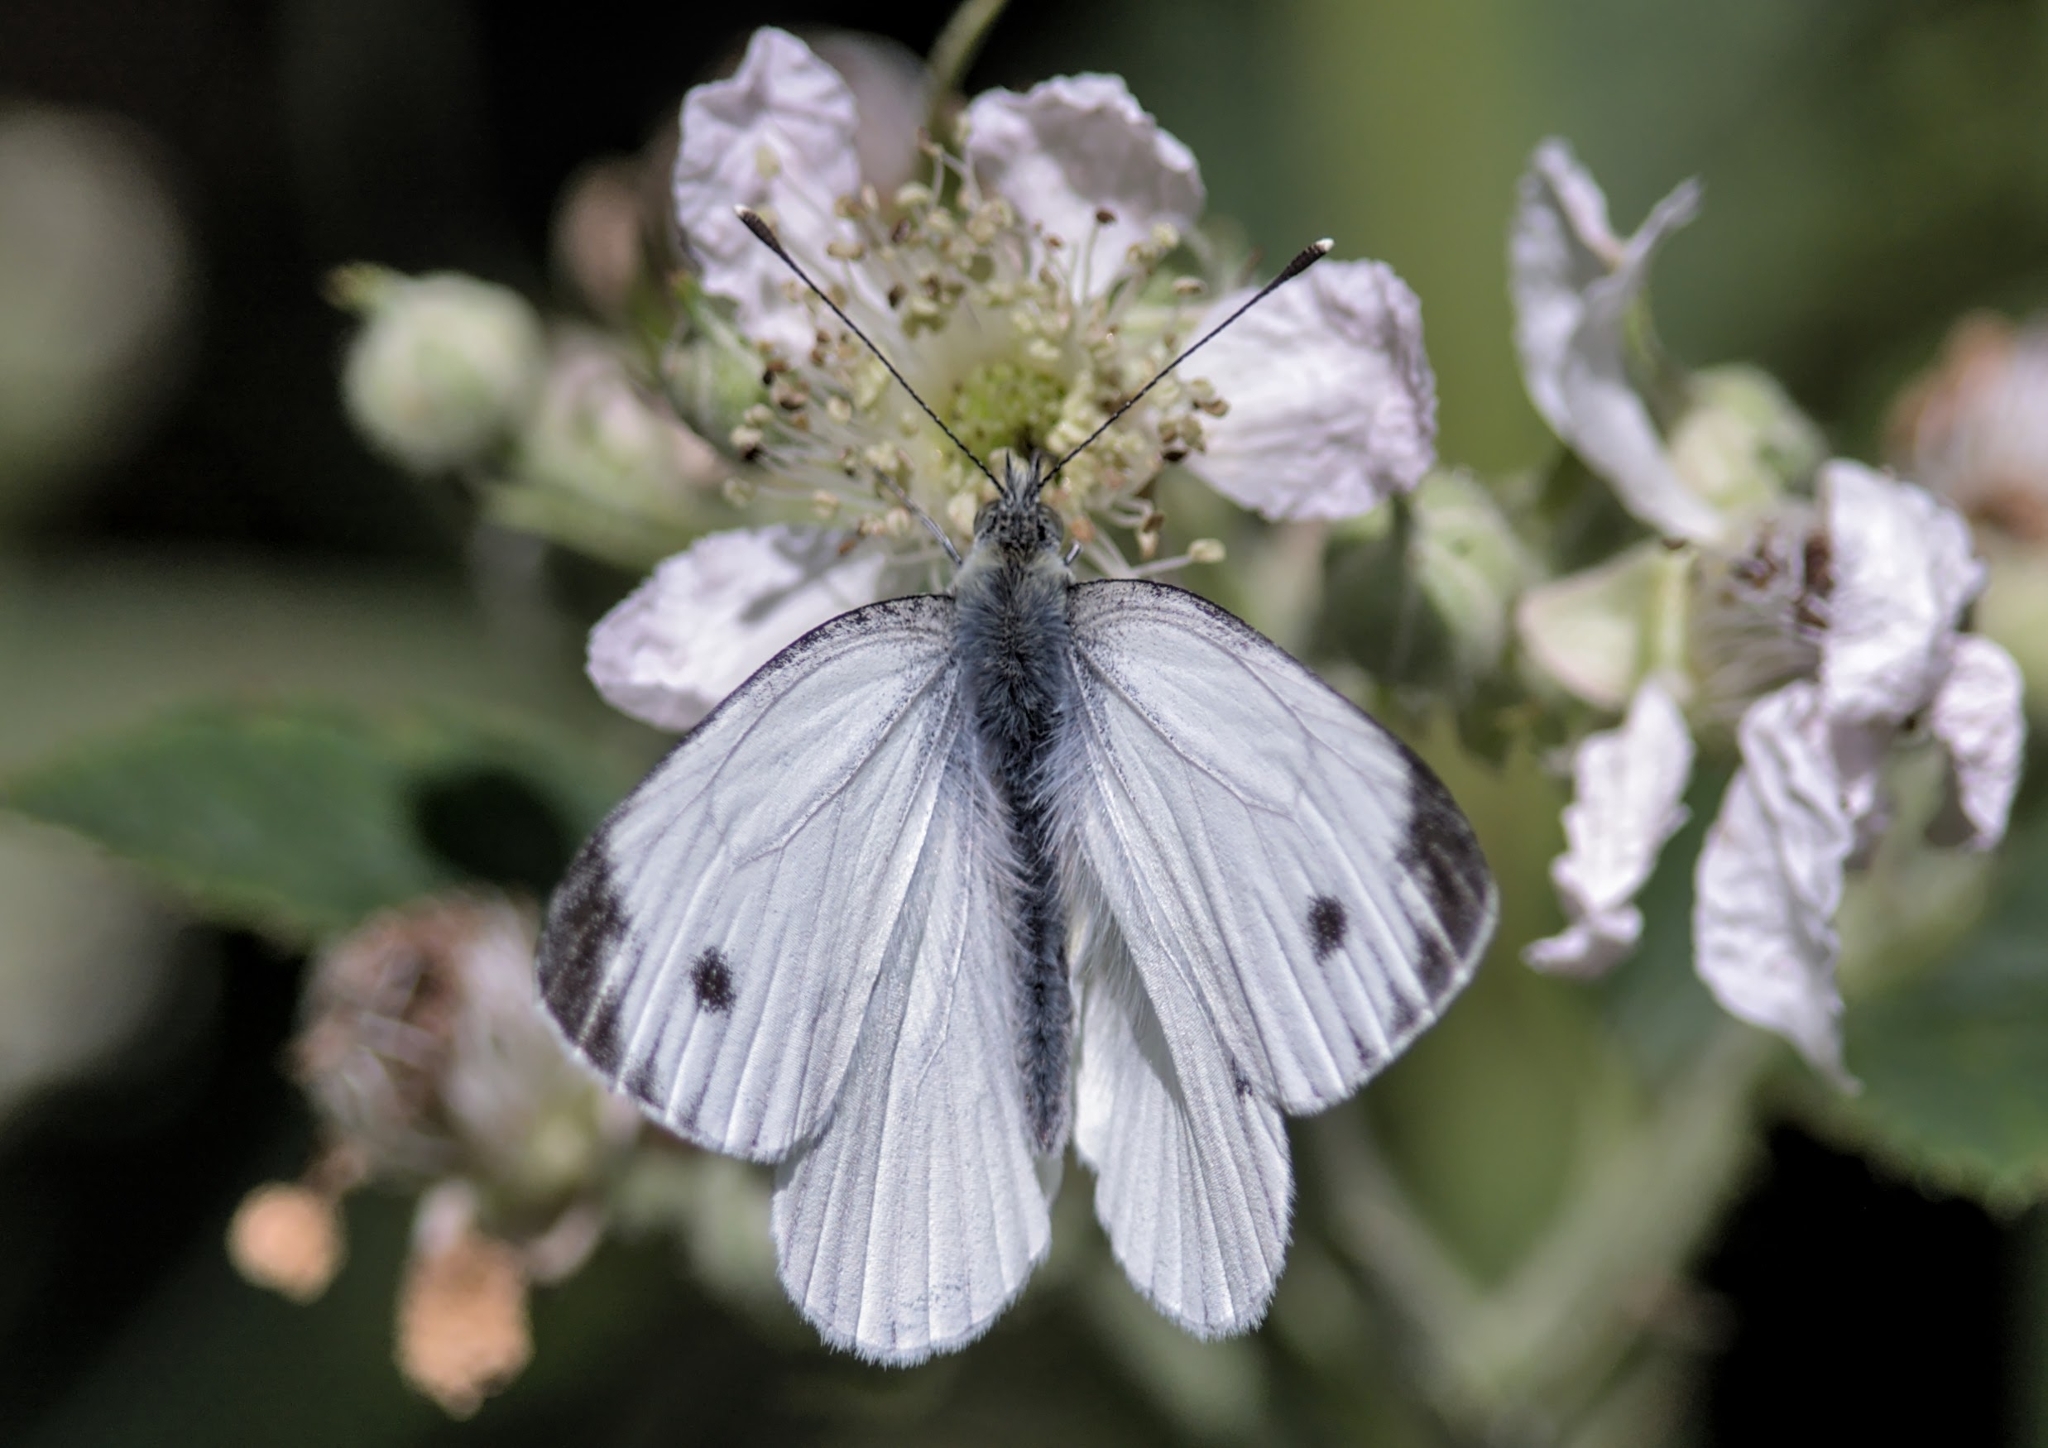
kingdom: Animalia
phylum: Arthropoda
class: Insecta
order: Lepidoptera
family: Pieridae
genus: Pieris
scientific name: Pieris napi
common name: Green-veined white
